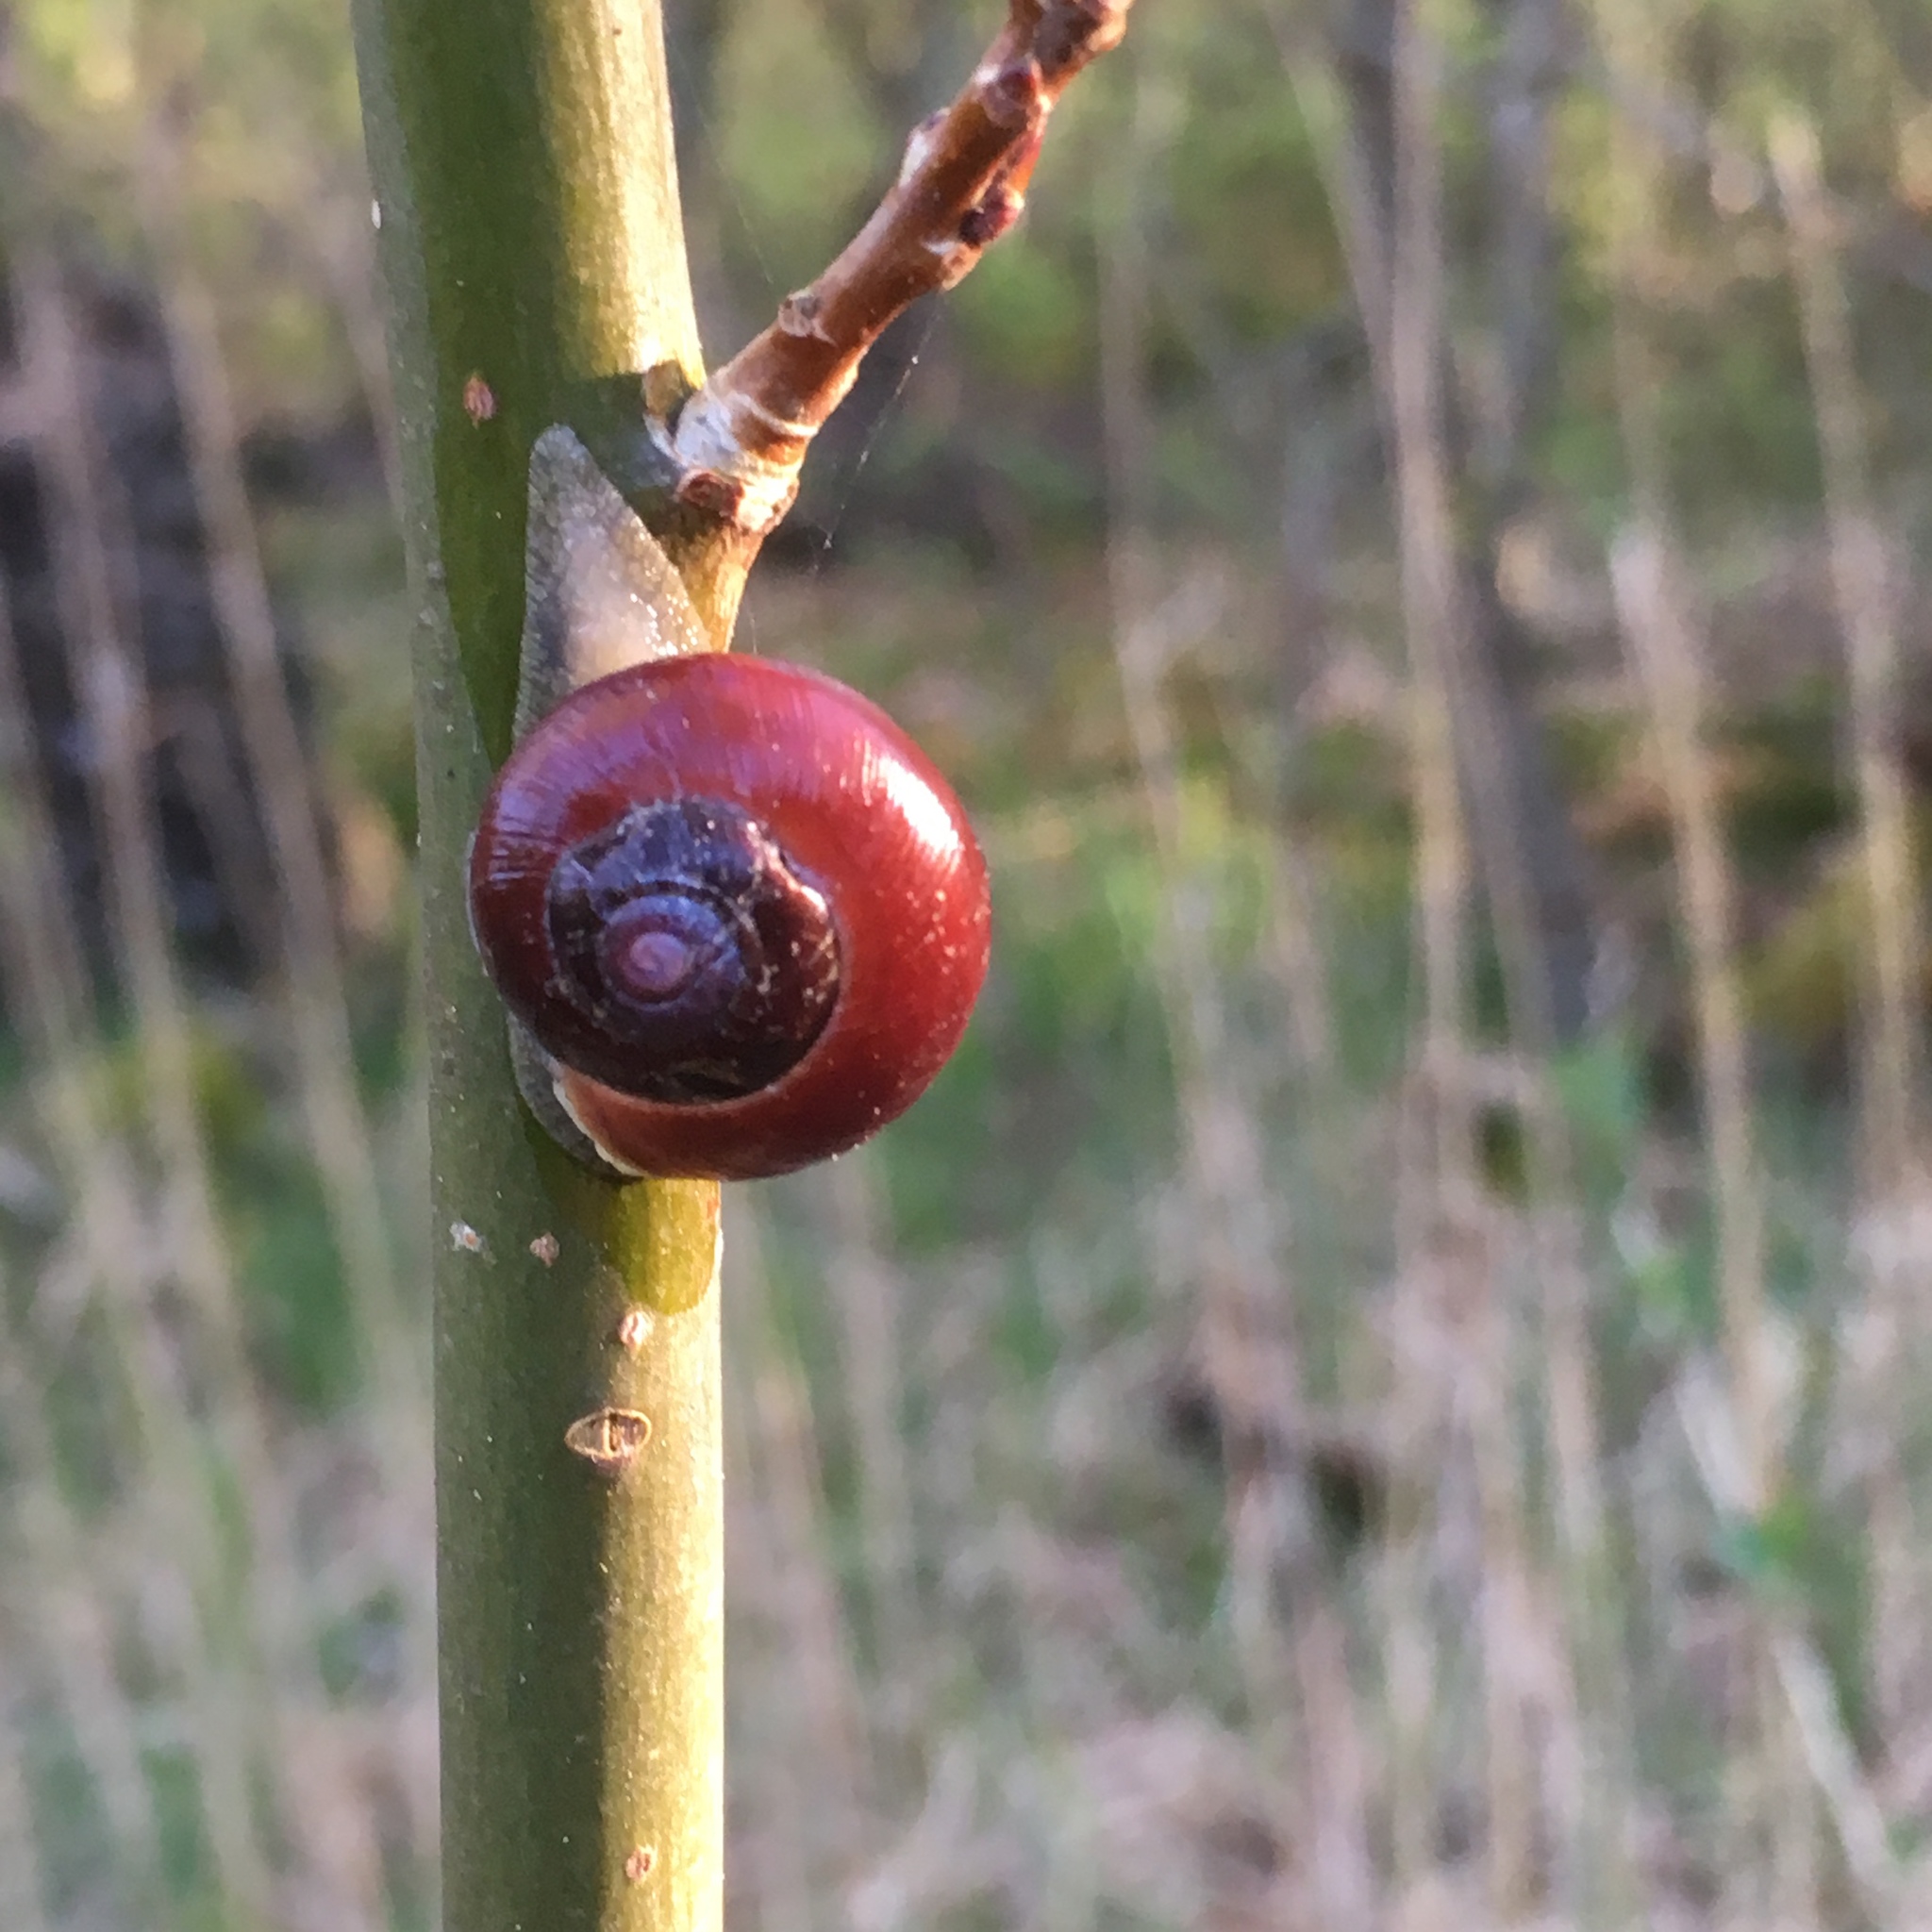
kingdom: Animalia
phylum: Mollusca
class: Gastropoda
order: Stylommatophora
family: Helicidae
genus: Cepaea
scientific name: Cepaea hortensis
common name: White-lip gardensnail
